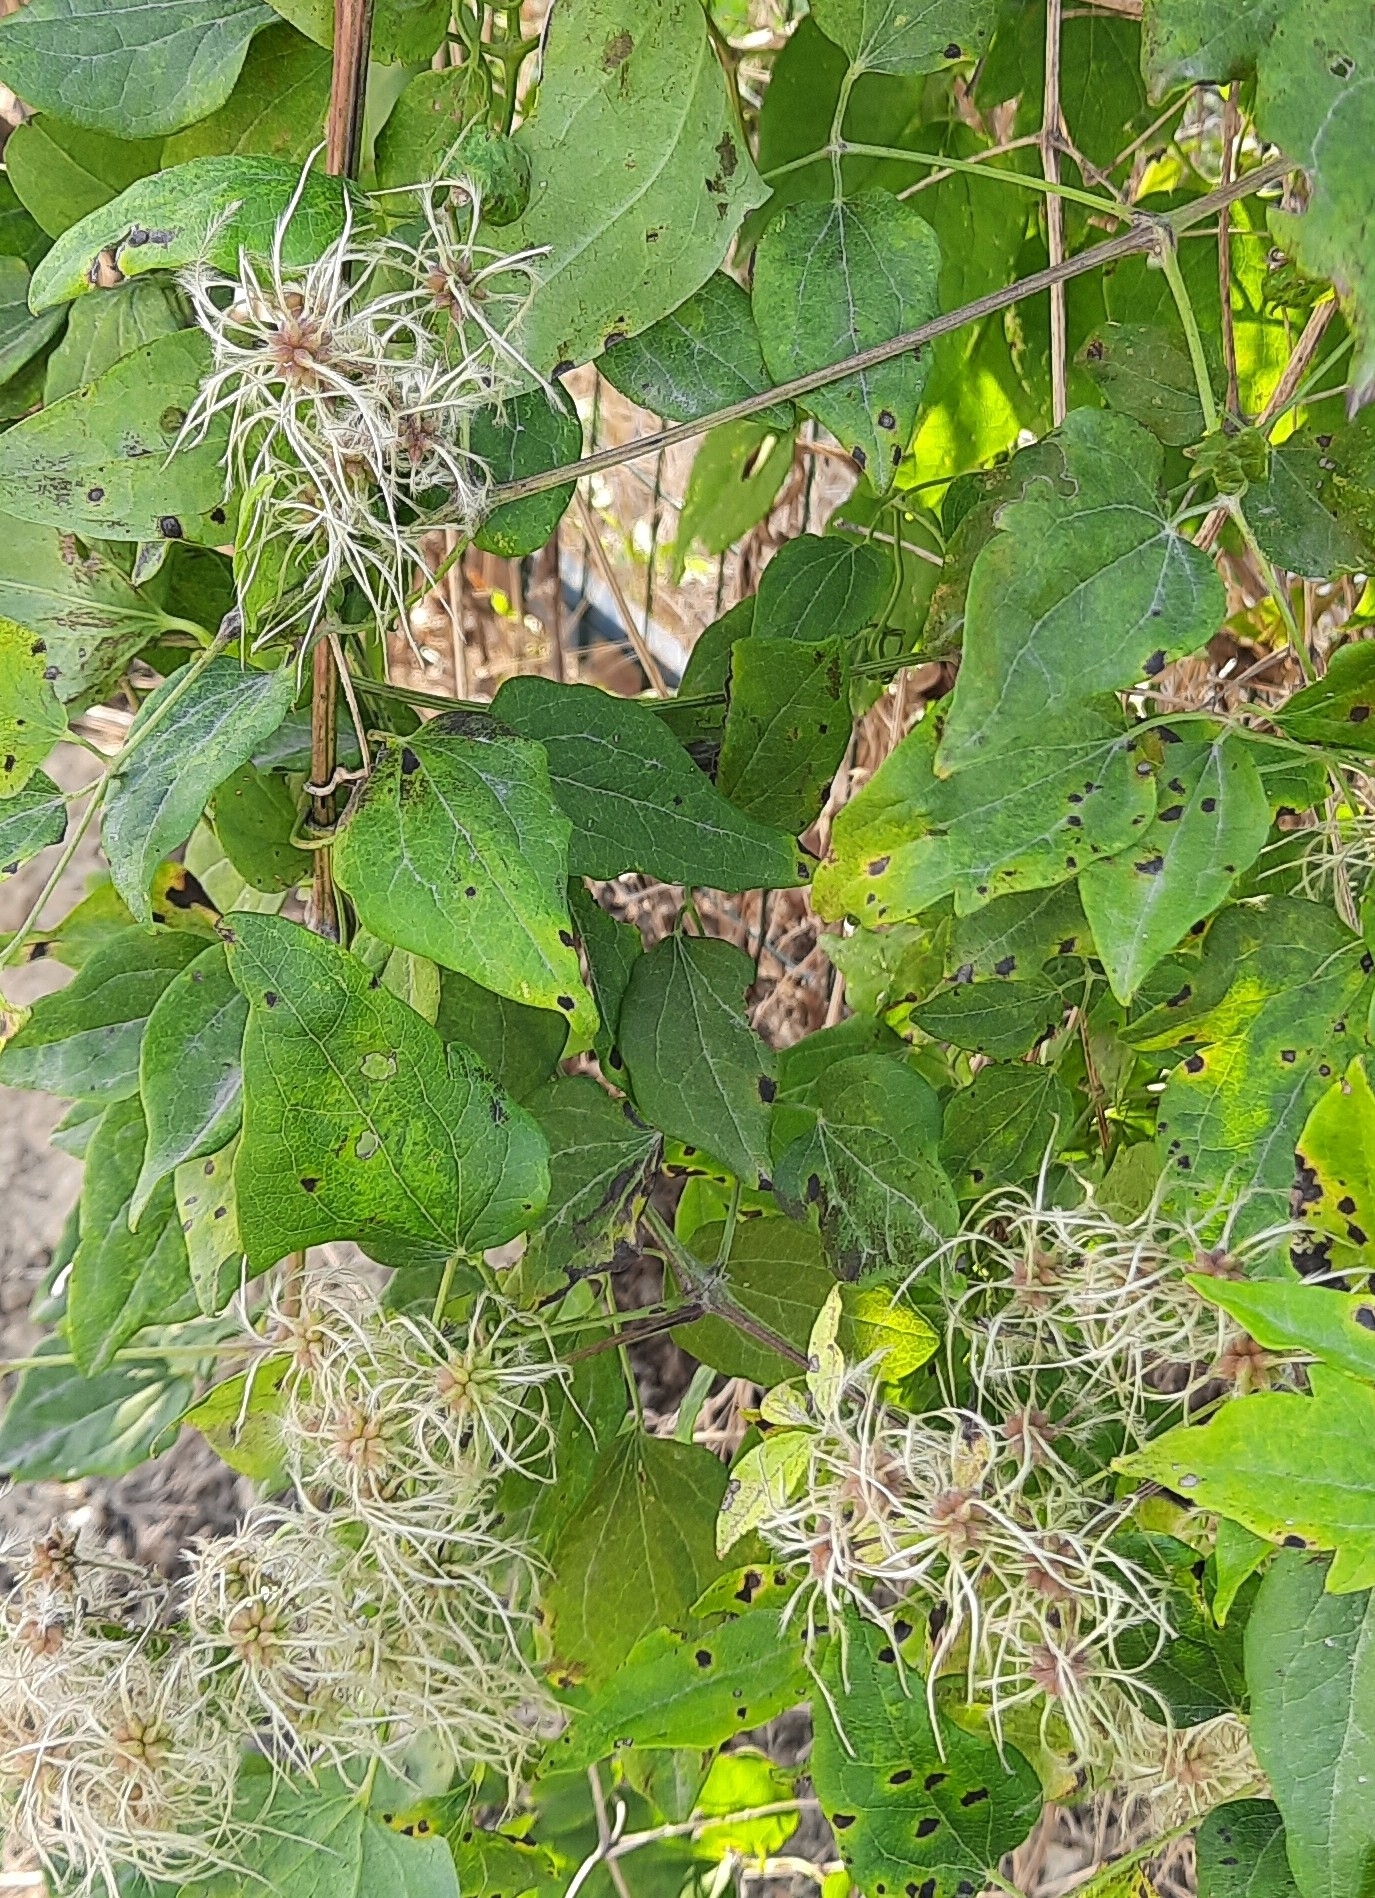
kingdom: Plantae
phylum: Tracheophyta
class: Magnoliopsida
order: Ranunculales
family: Ranunculaceae
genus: Clematis
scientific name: Clematis vitalba
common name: Evergreen clematis
